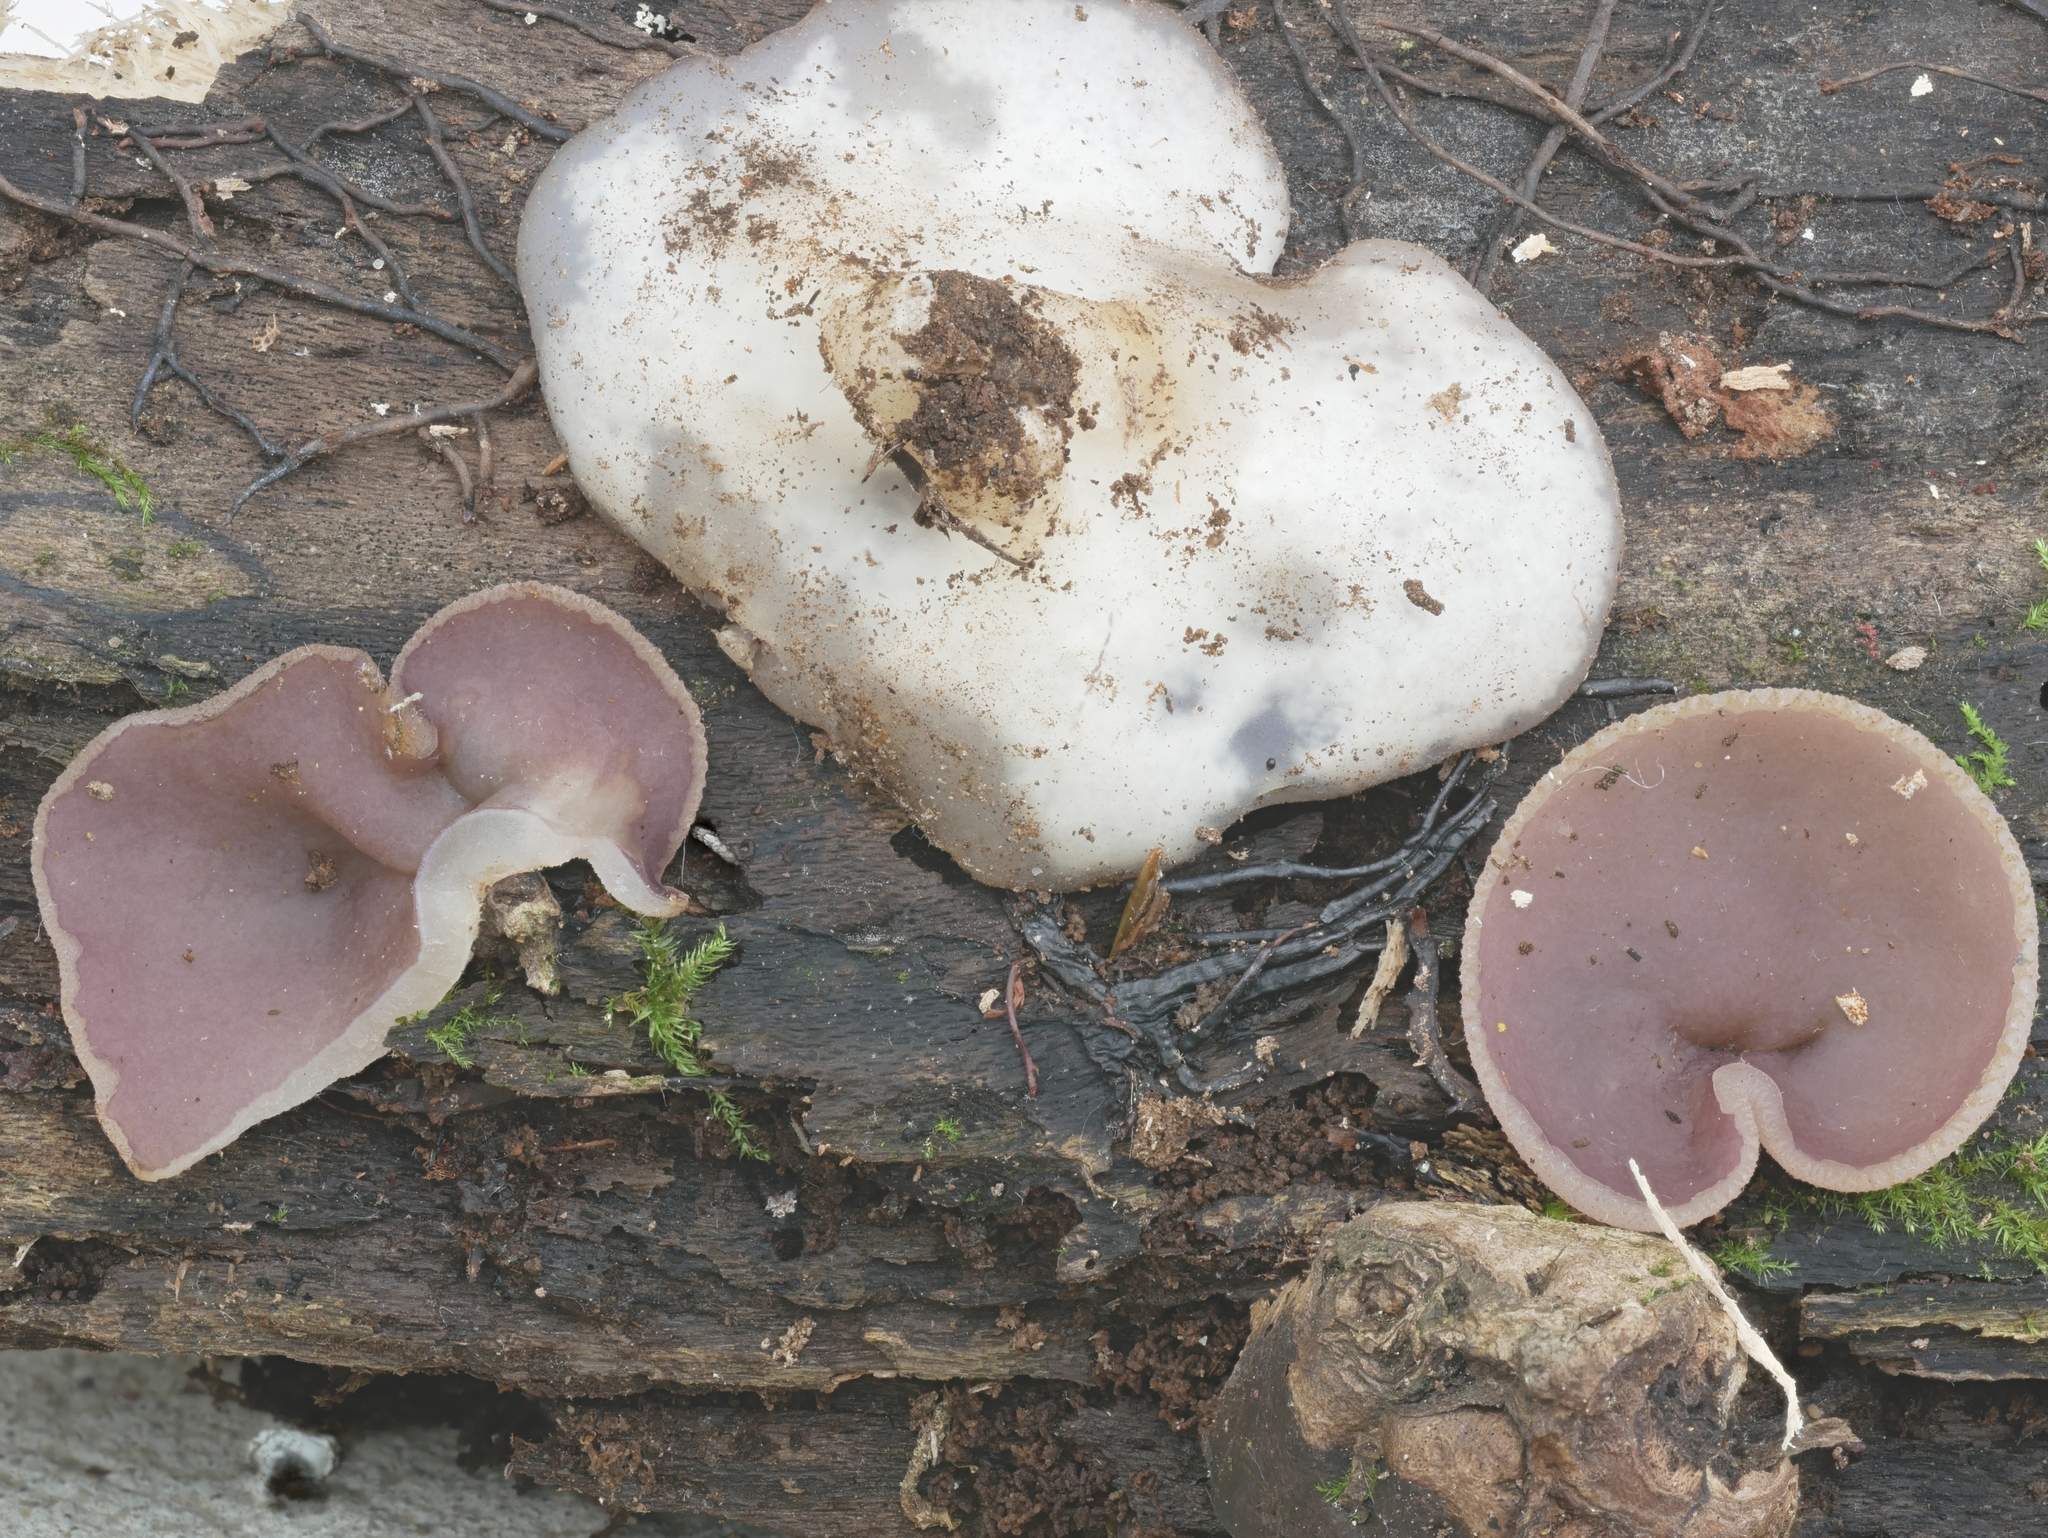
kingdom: Fungi
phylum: Ascomycota
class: Pezizomycetes
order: Pezizales
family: Pezizaceae
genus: Paragalactinia
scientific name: Paragalactinia michelii
